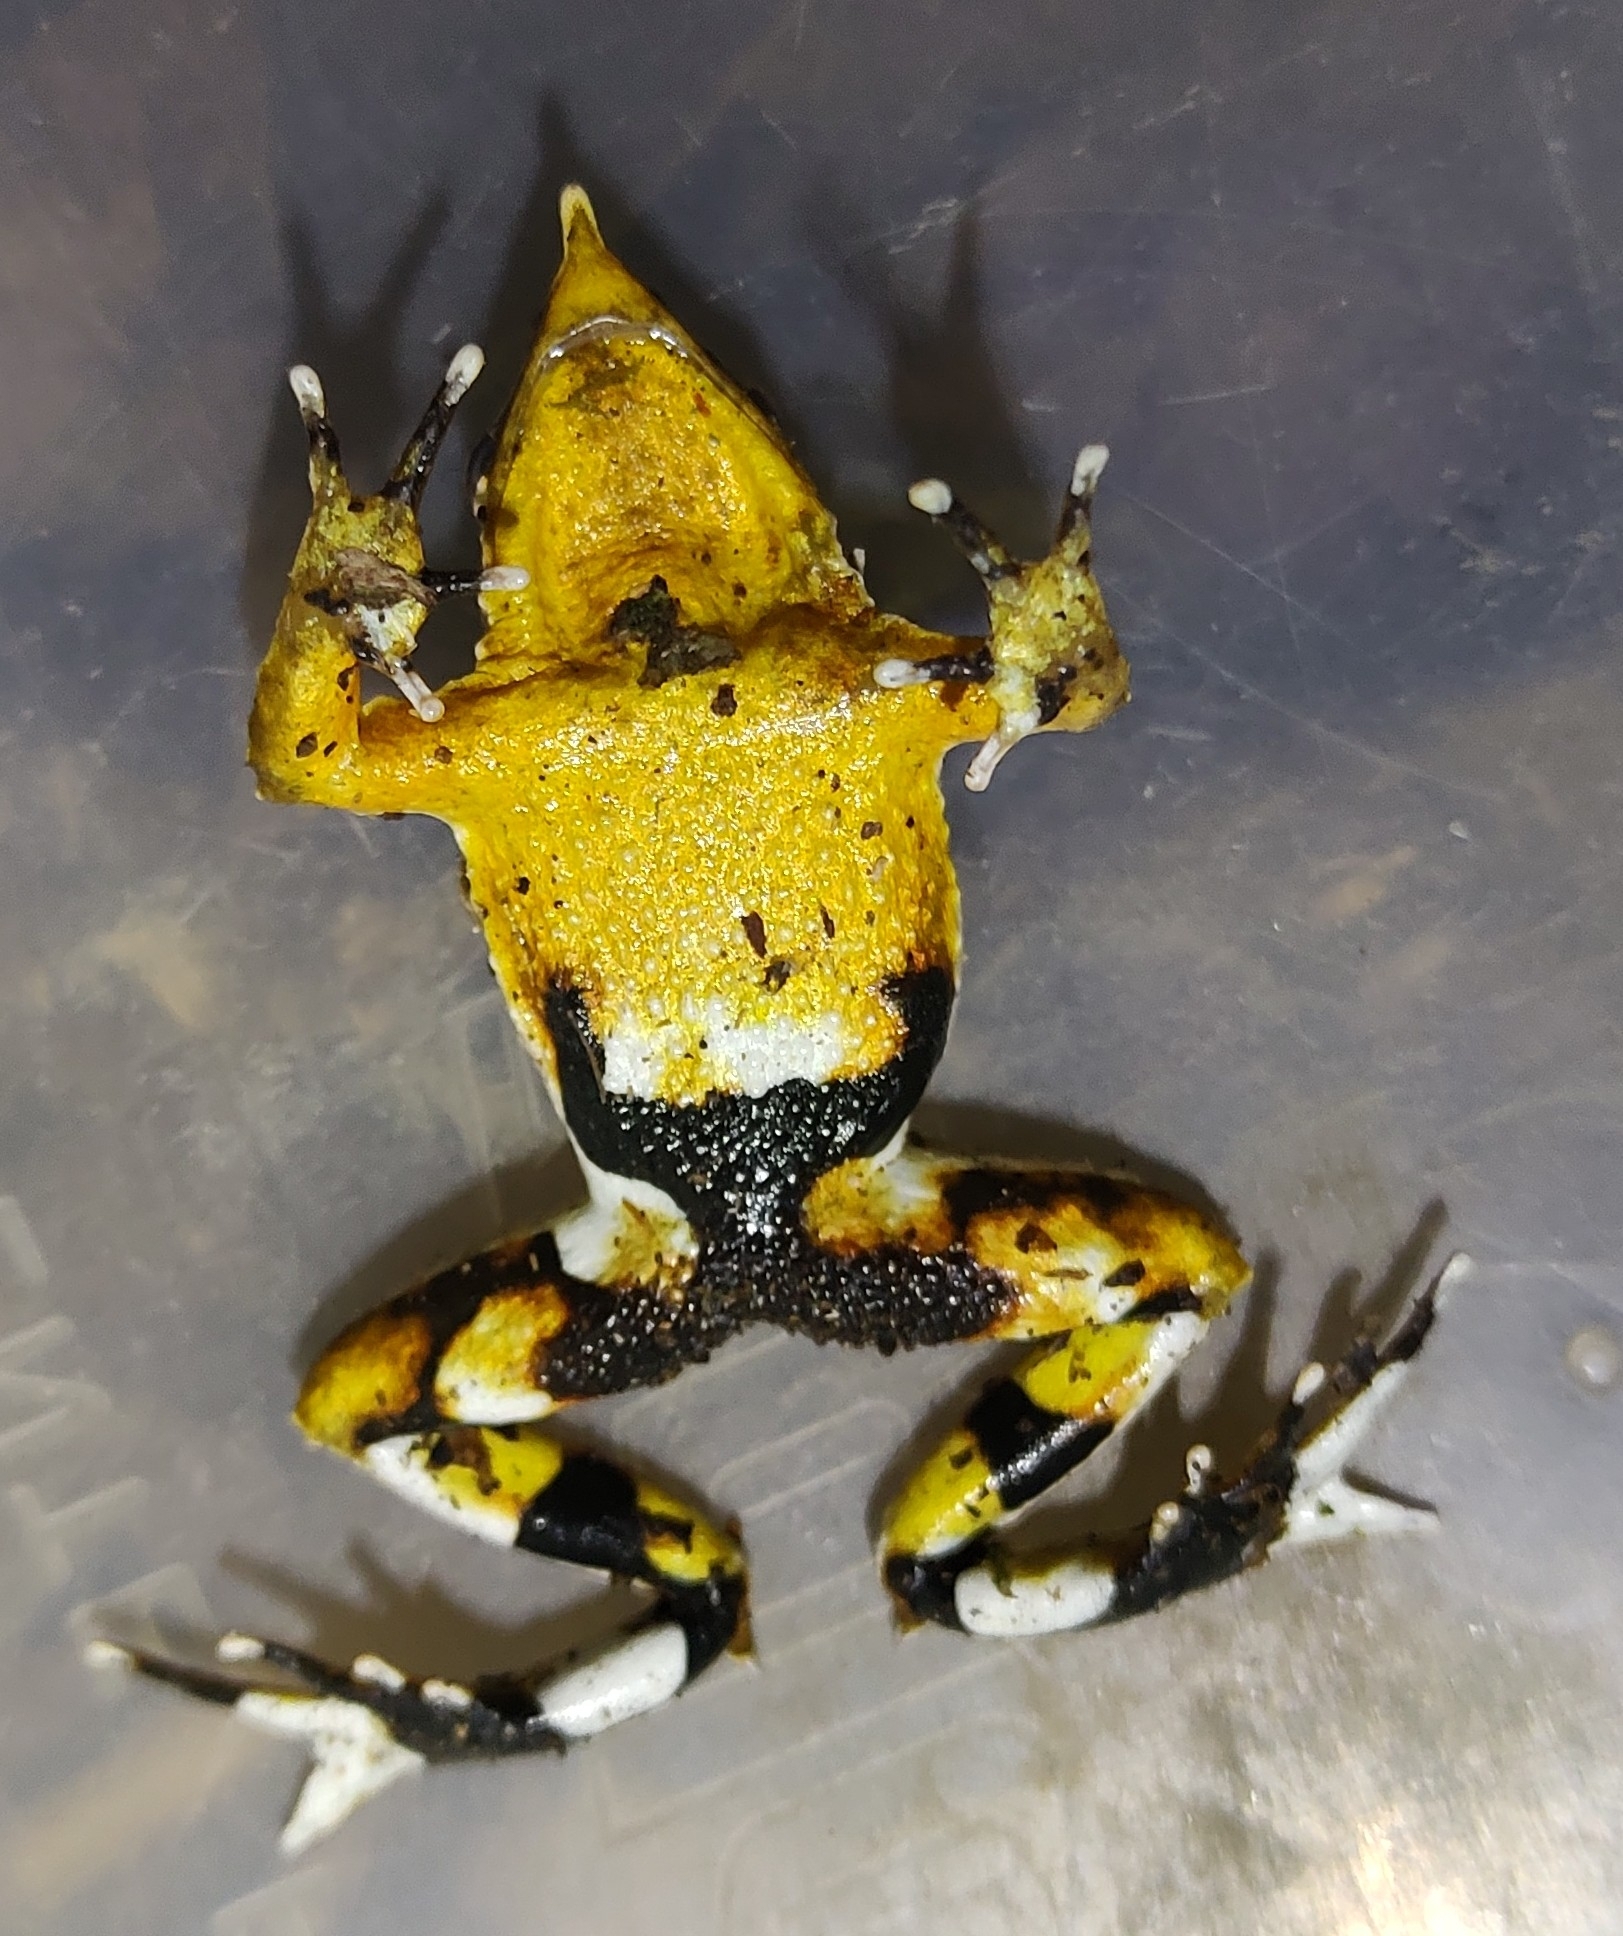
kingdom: Animalia
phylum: Chordata
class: Amphibia
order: Anura
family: Rhinodermatidae
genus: Rhinoderma
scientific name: Rhinoderma darwinii
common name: Darwin's frog
